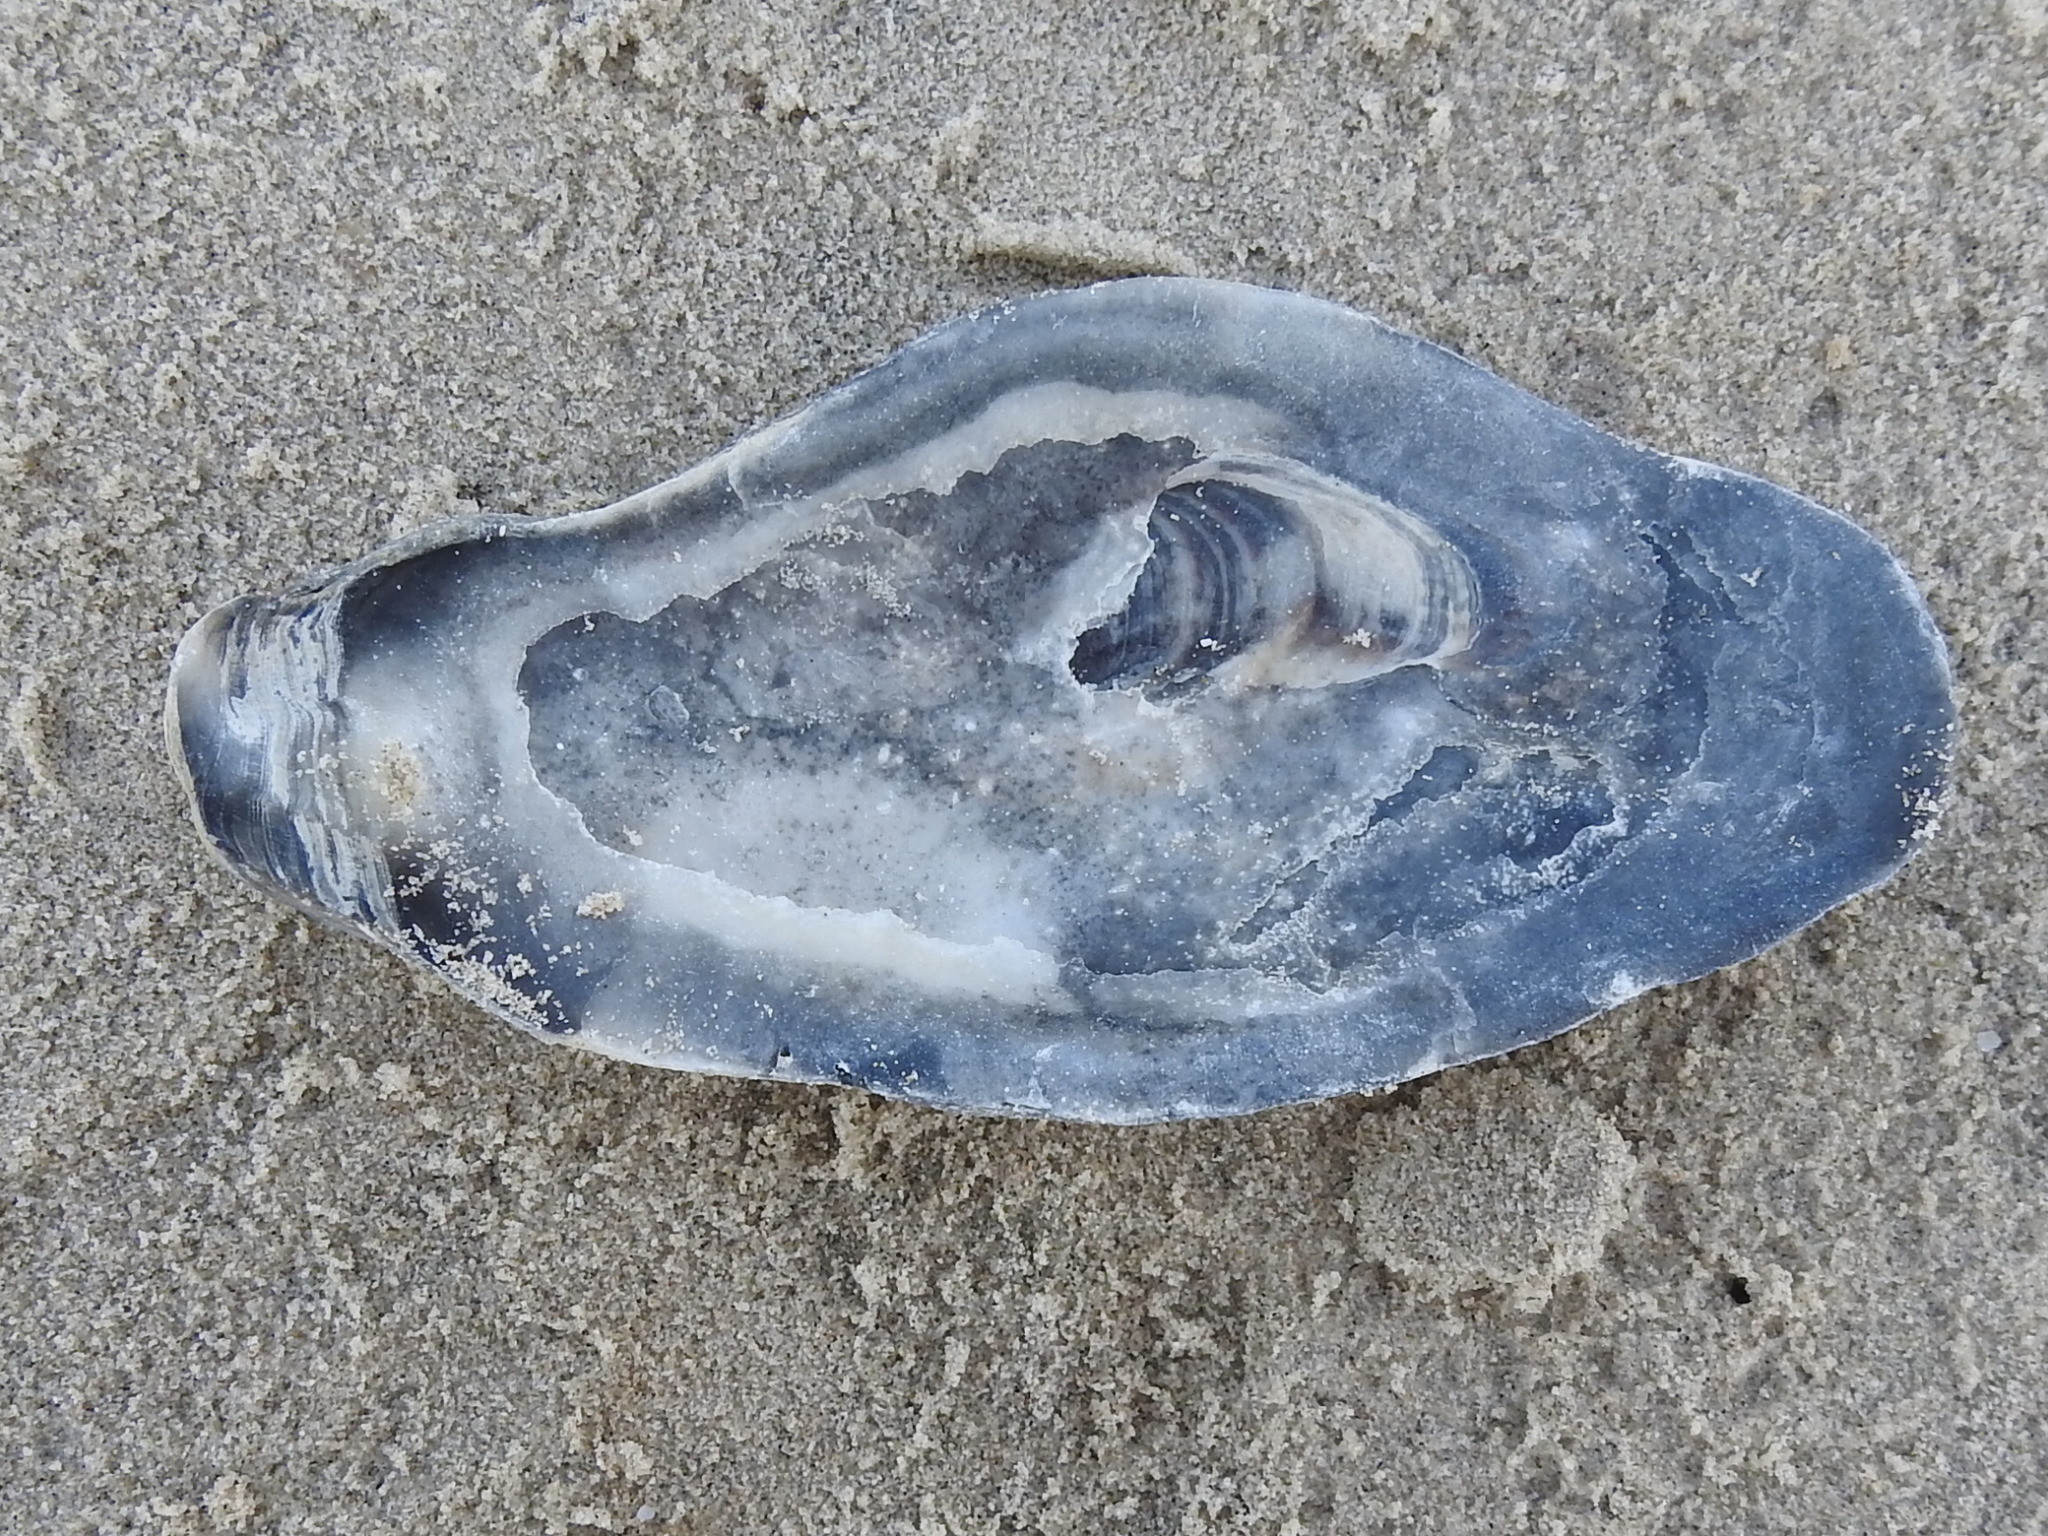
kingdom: Animalia
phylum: Mollusca
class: Bivalvia
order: Ostreida
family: Ostreidae
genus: Crassostrea
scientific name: Crassostrea virginica
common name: American oyster
